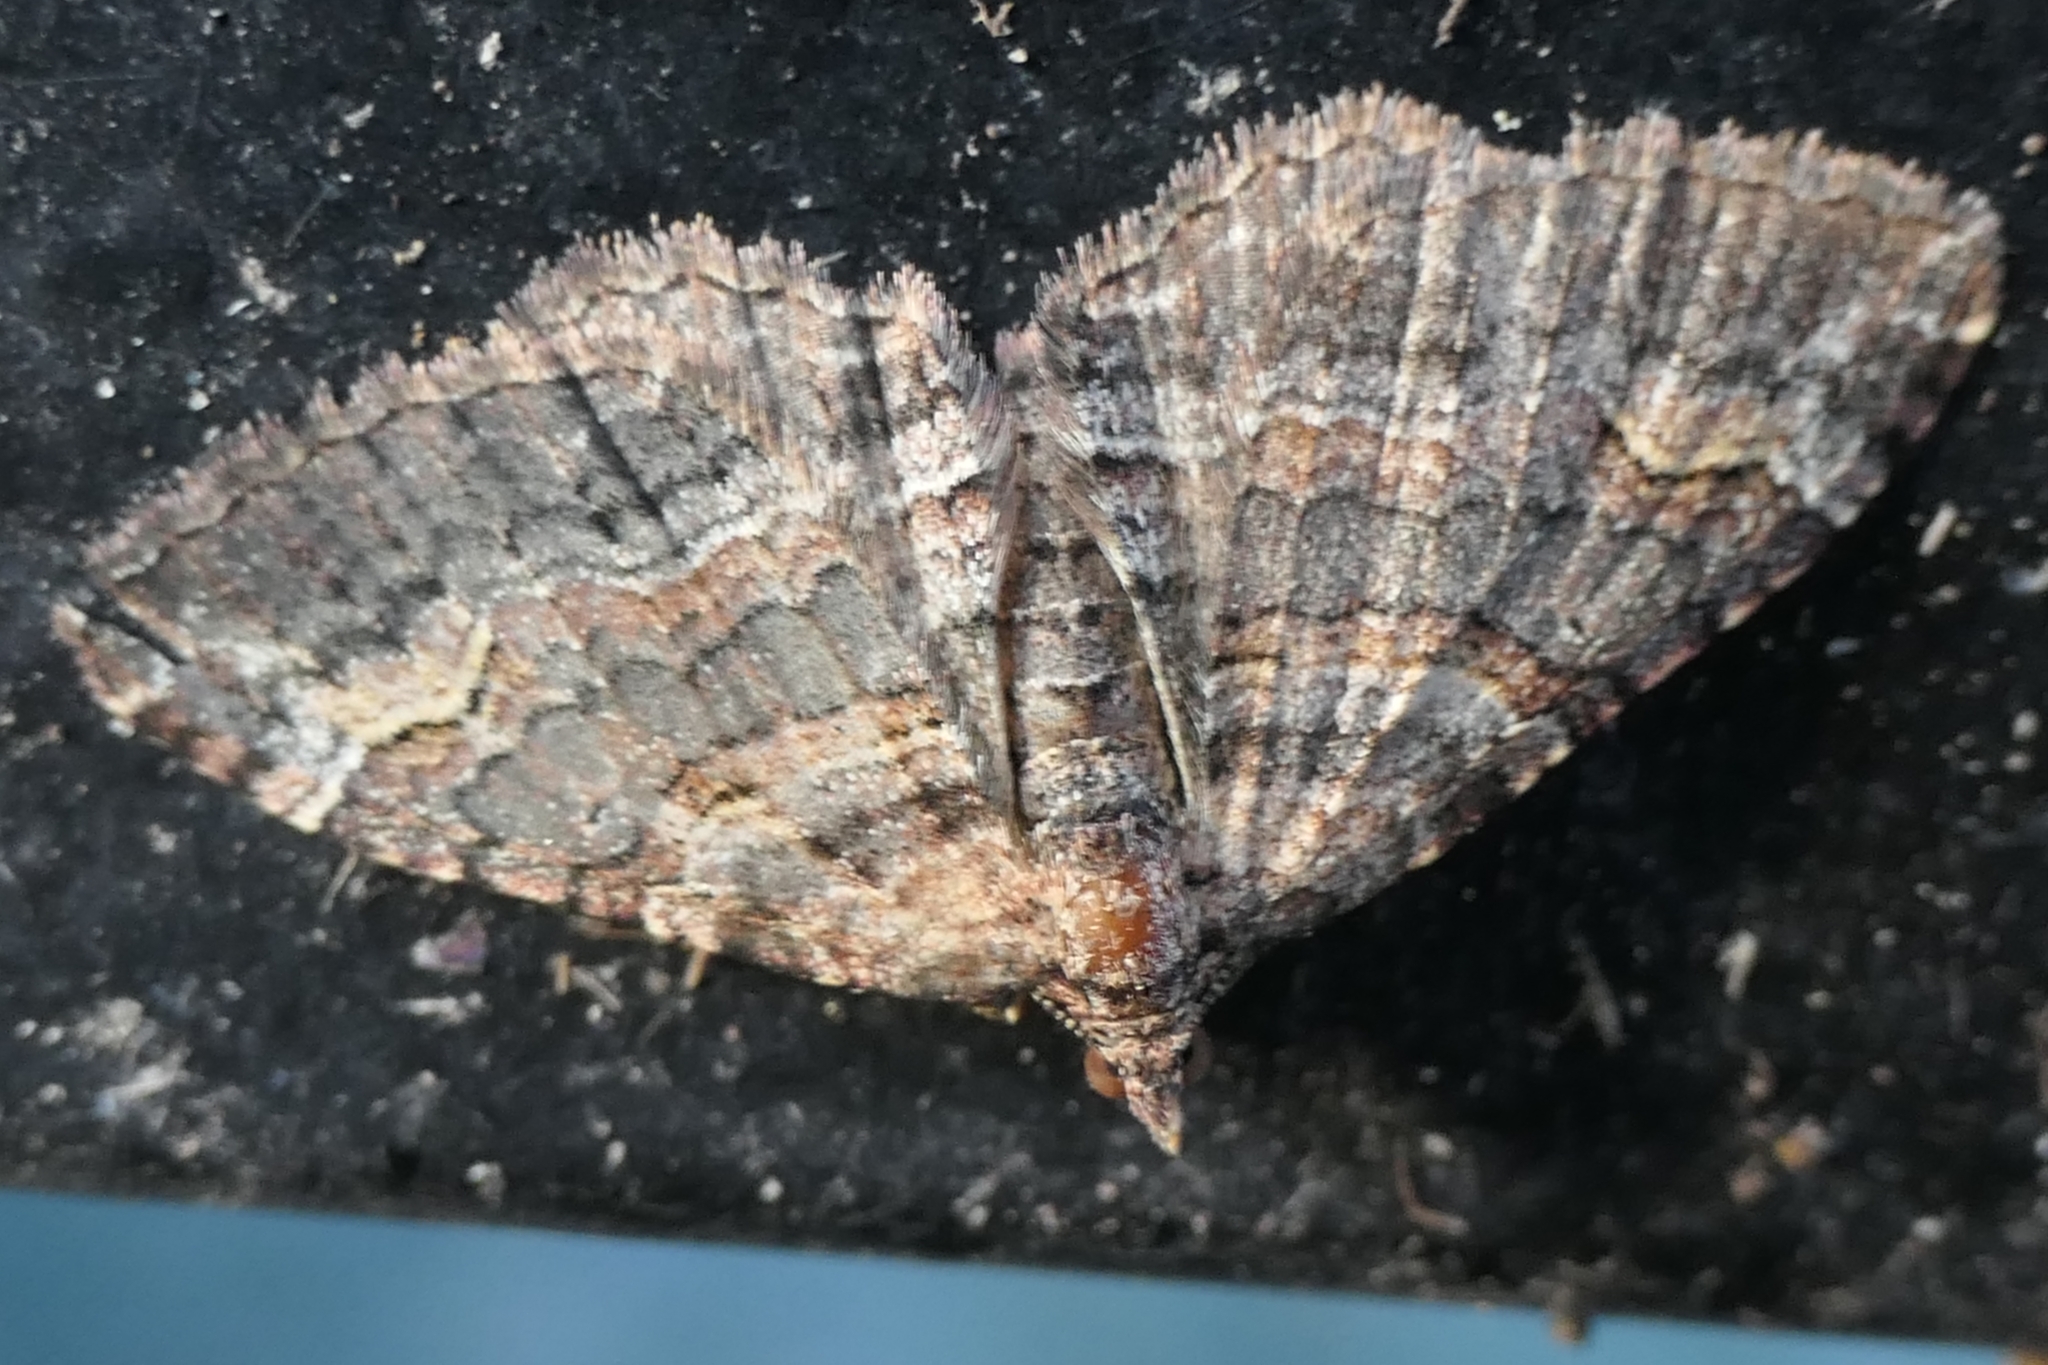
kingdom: Animalia
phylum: Arthropoda
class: Insecta
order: Lepidoptera
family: Geometridae
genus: Epyaxa
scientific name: Epyaxa lucidata
